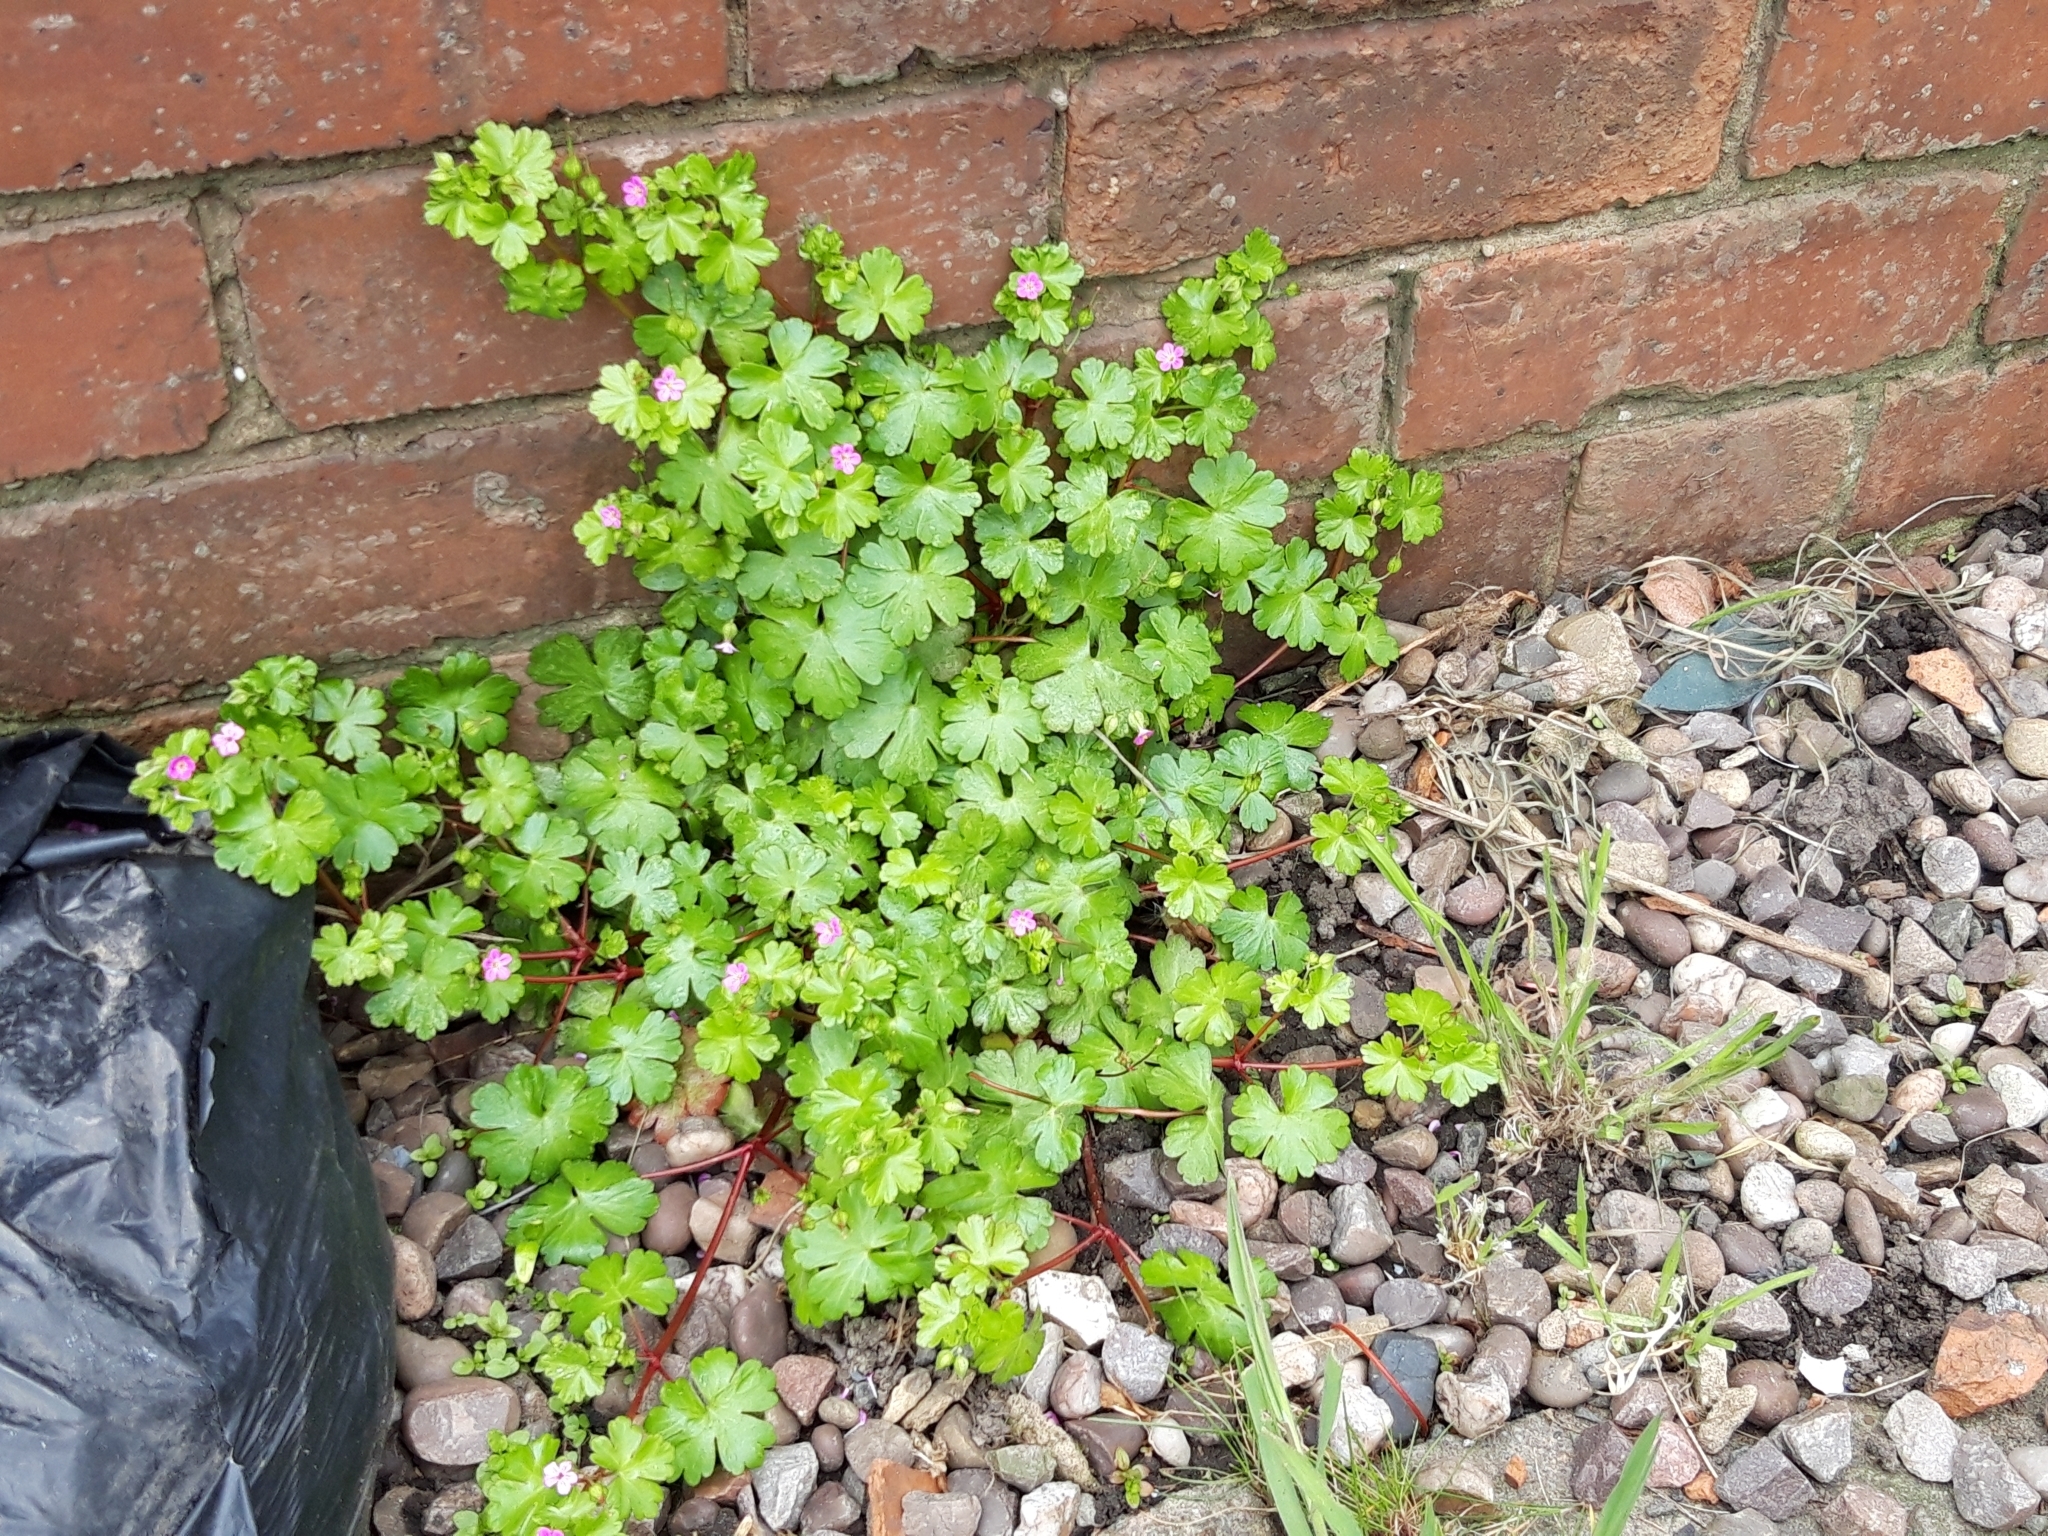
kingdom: Plantae
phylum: Tracheophyta
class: Magnoliopsida
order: Geraniales
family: Geraniaceae
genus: Geranium
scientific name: Geranium lucidum
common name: Shining crane's-bill
